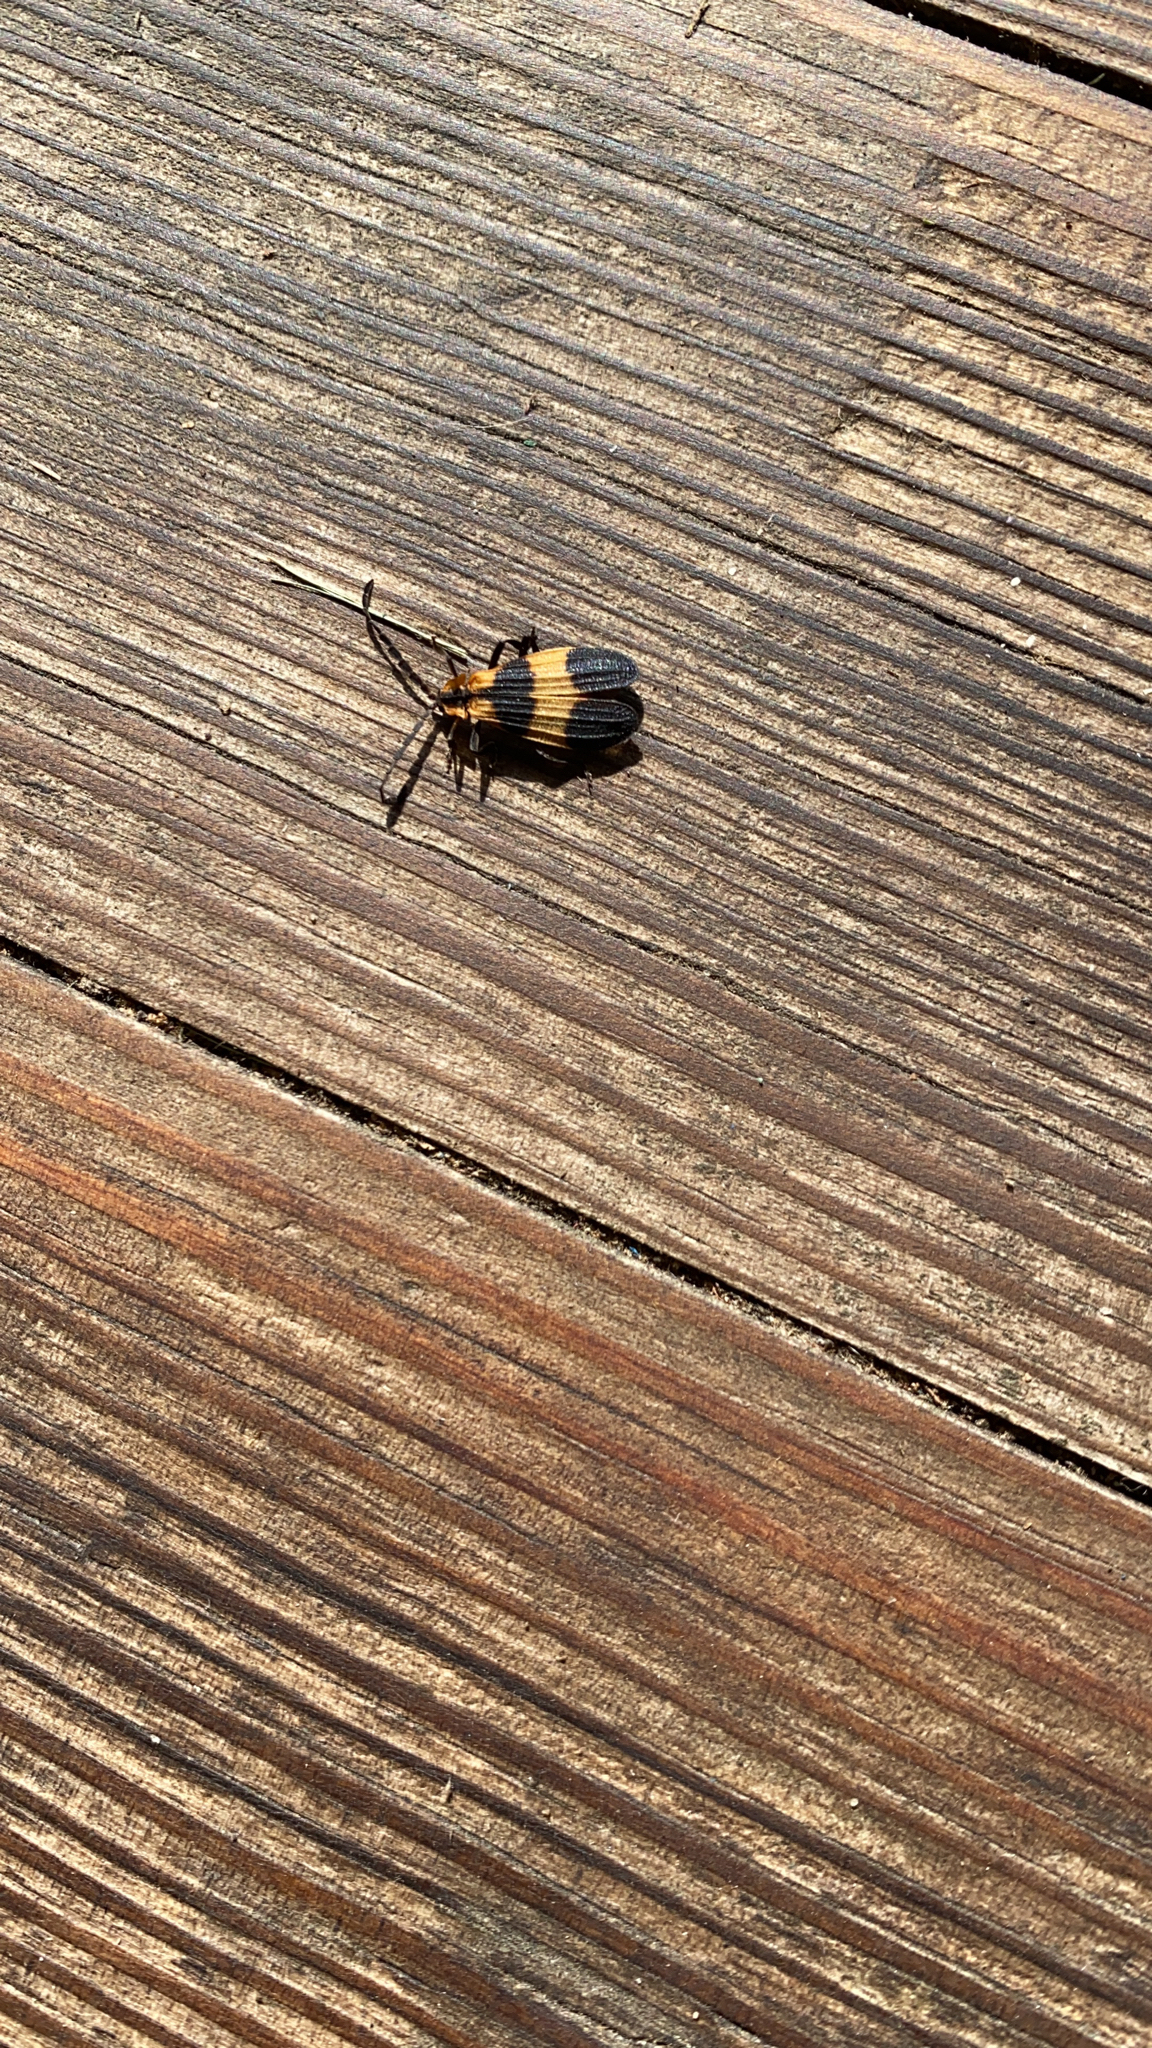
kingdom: Animalia
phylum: Arthropoda
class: Insecta
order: Coleoptera
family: Lycidae
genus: Calopteron
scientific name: Calopteron reticulatum
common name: Banded net-winged beetle
